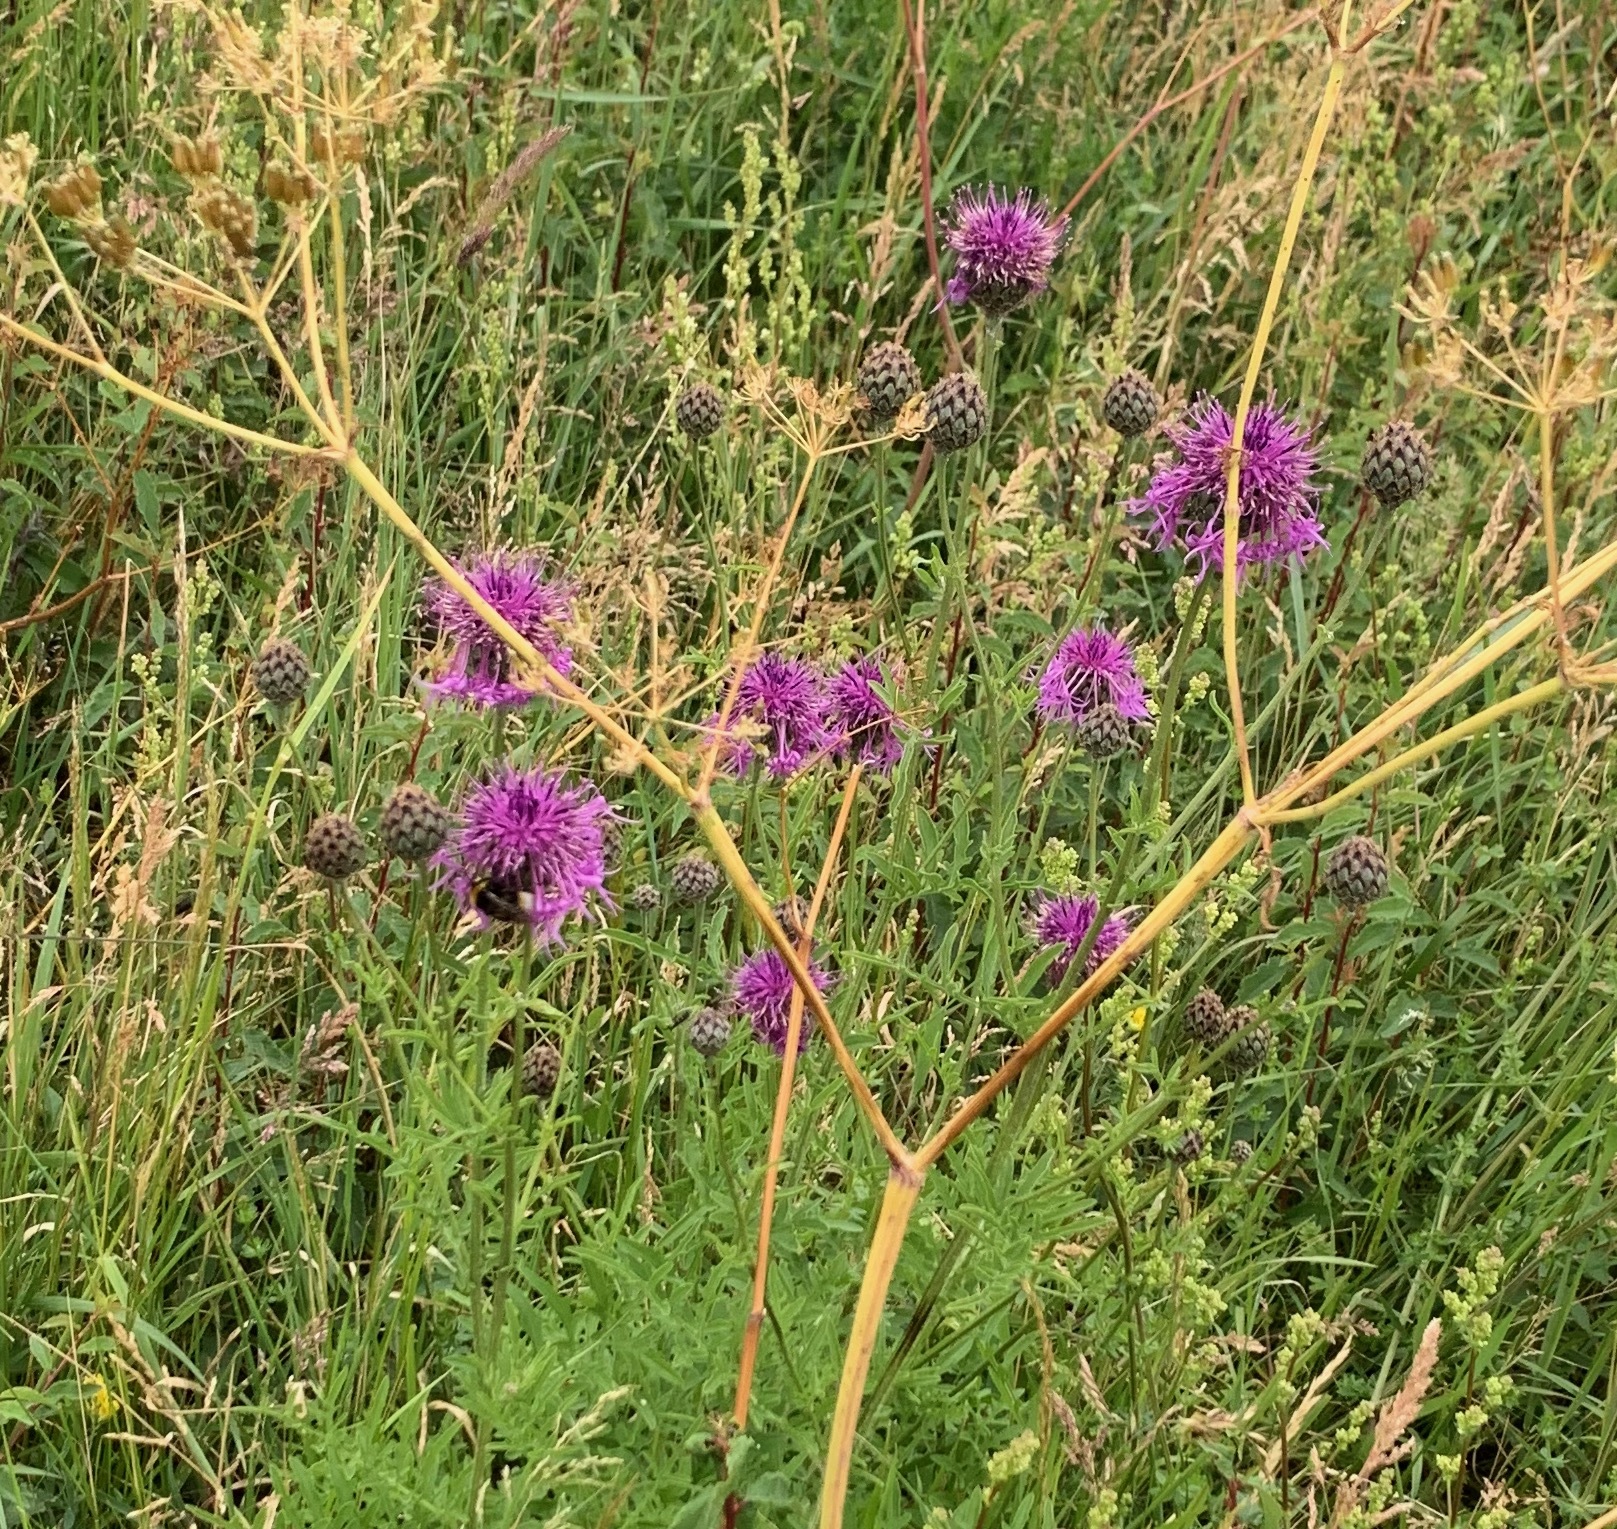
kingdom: Plantae
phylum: Tracheophyta
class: Magnoliopsida
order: Lamiales
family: Orobanchaceae
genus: Orobanche
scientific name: Orobanche elatior
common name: Knapweed broomrape
